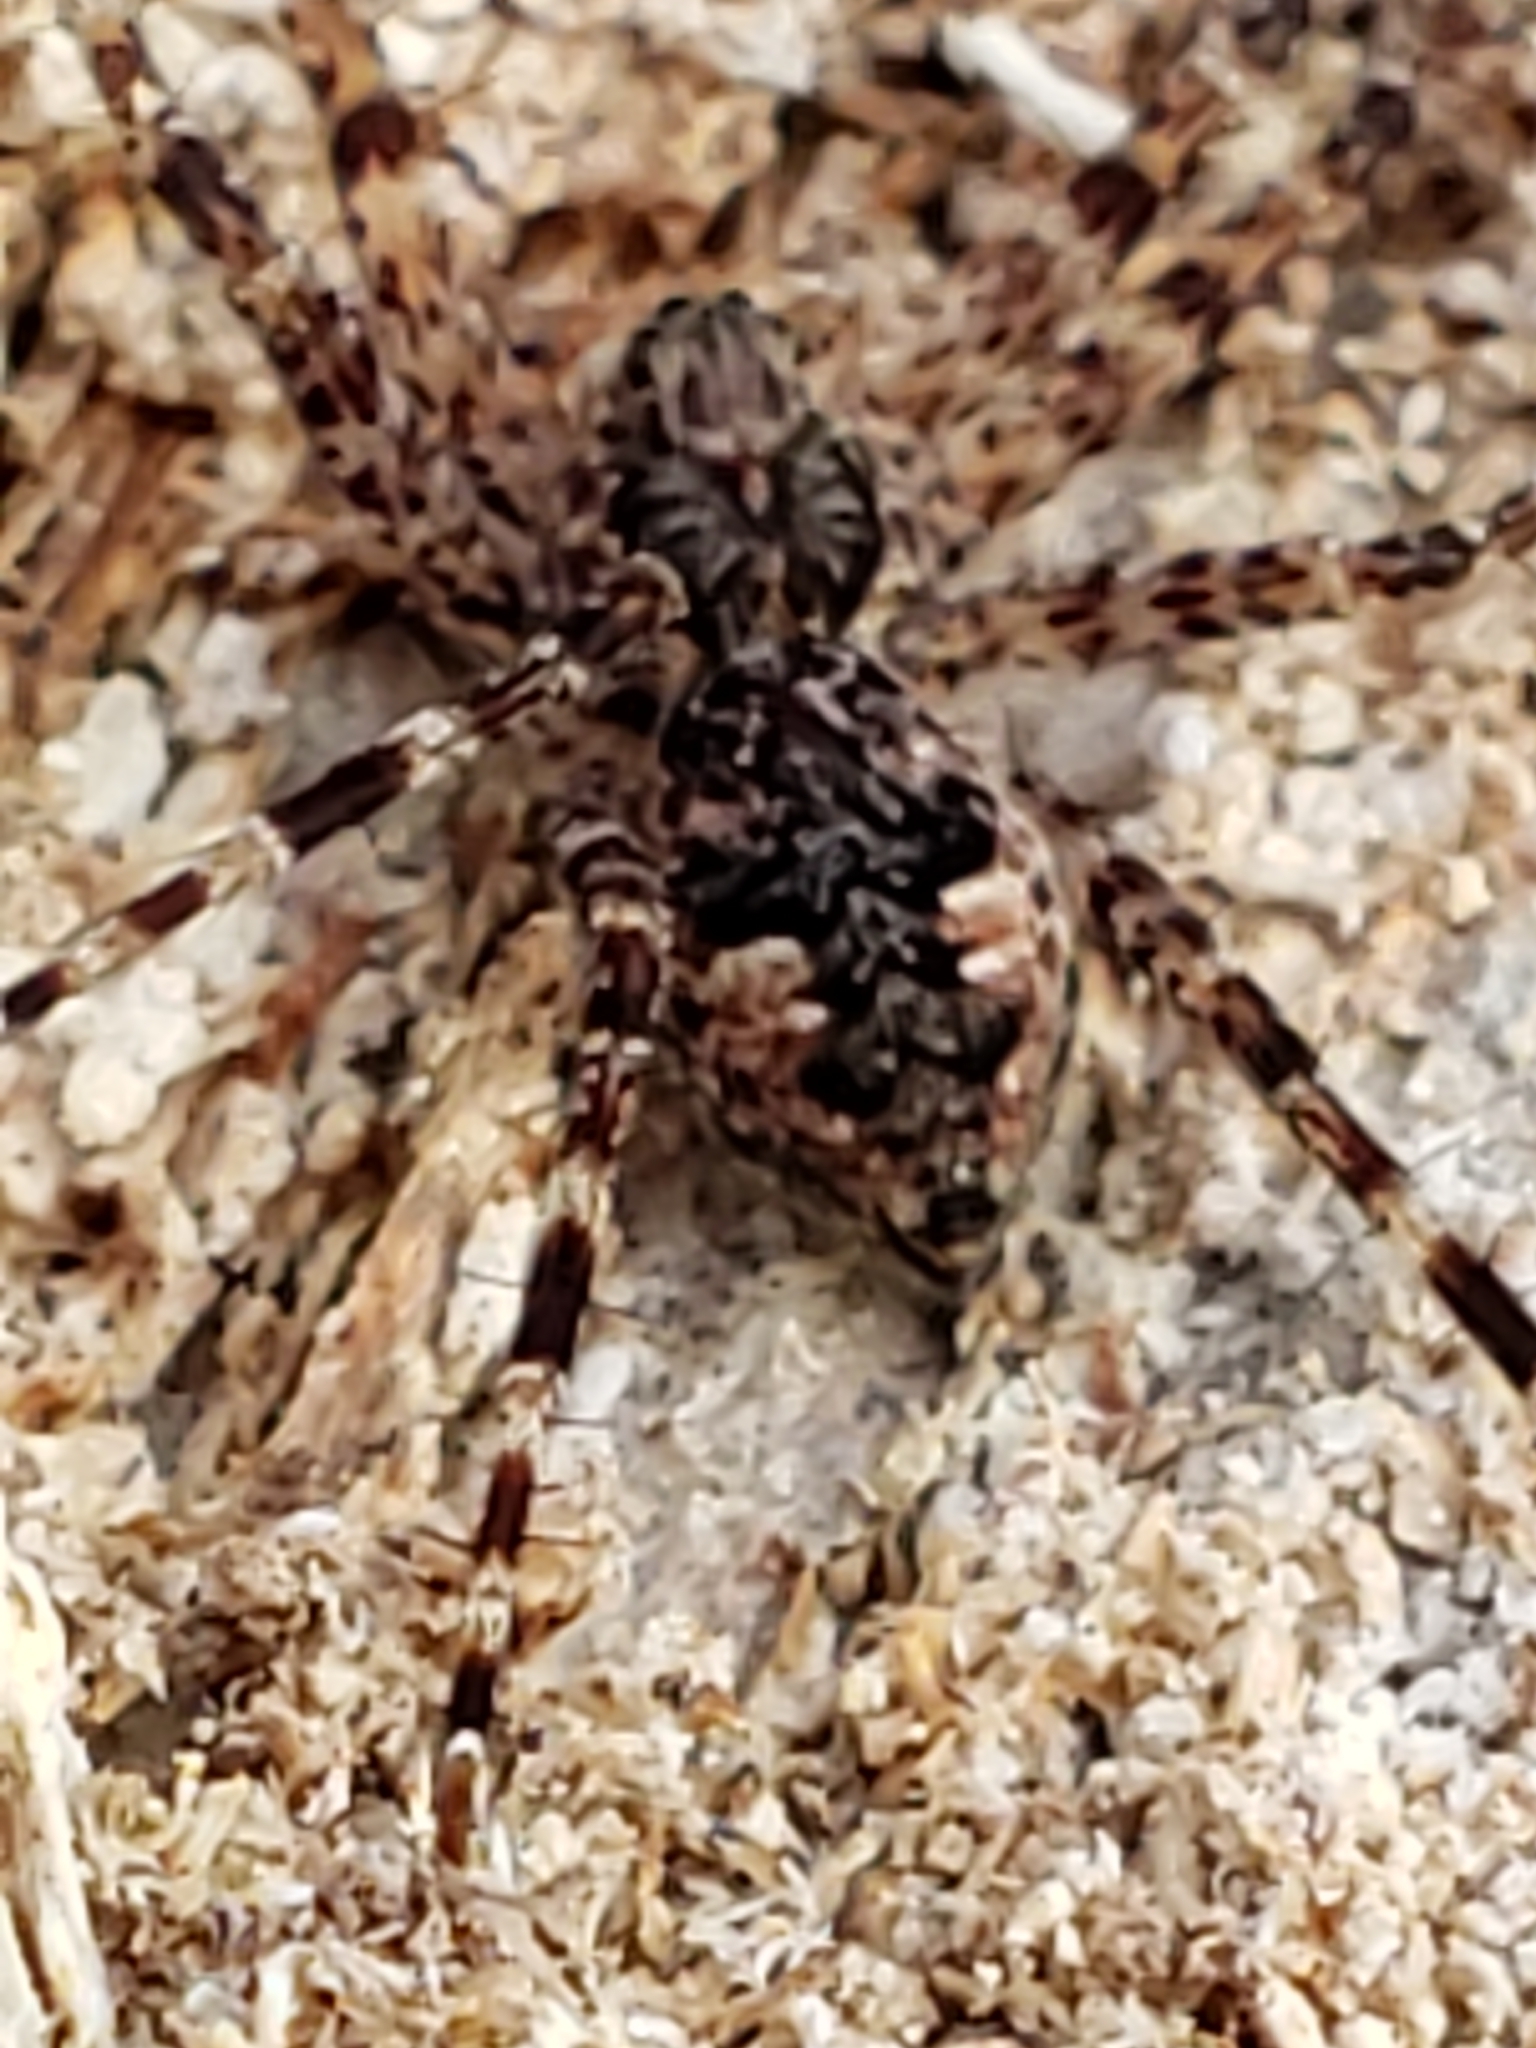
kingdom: Animalia
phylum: Arthropoda
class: Arachnida
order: Araneae
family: Pisauridae
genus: Dolomedes
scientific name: Dolomedes tenebrosus
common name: Dark fishing spider
